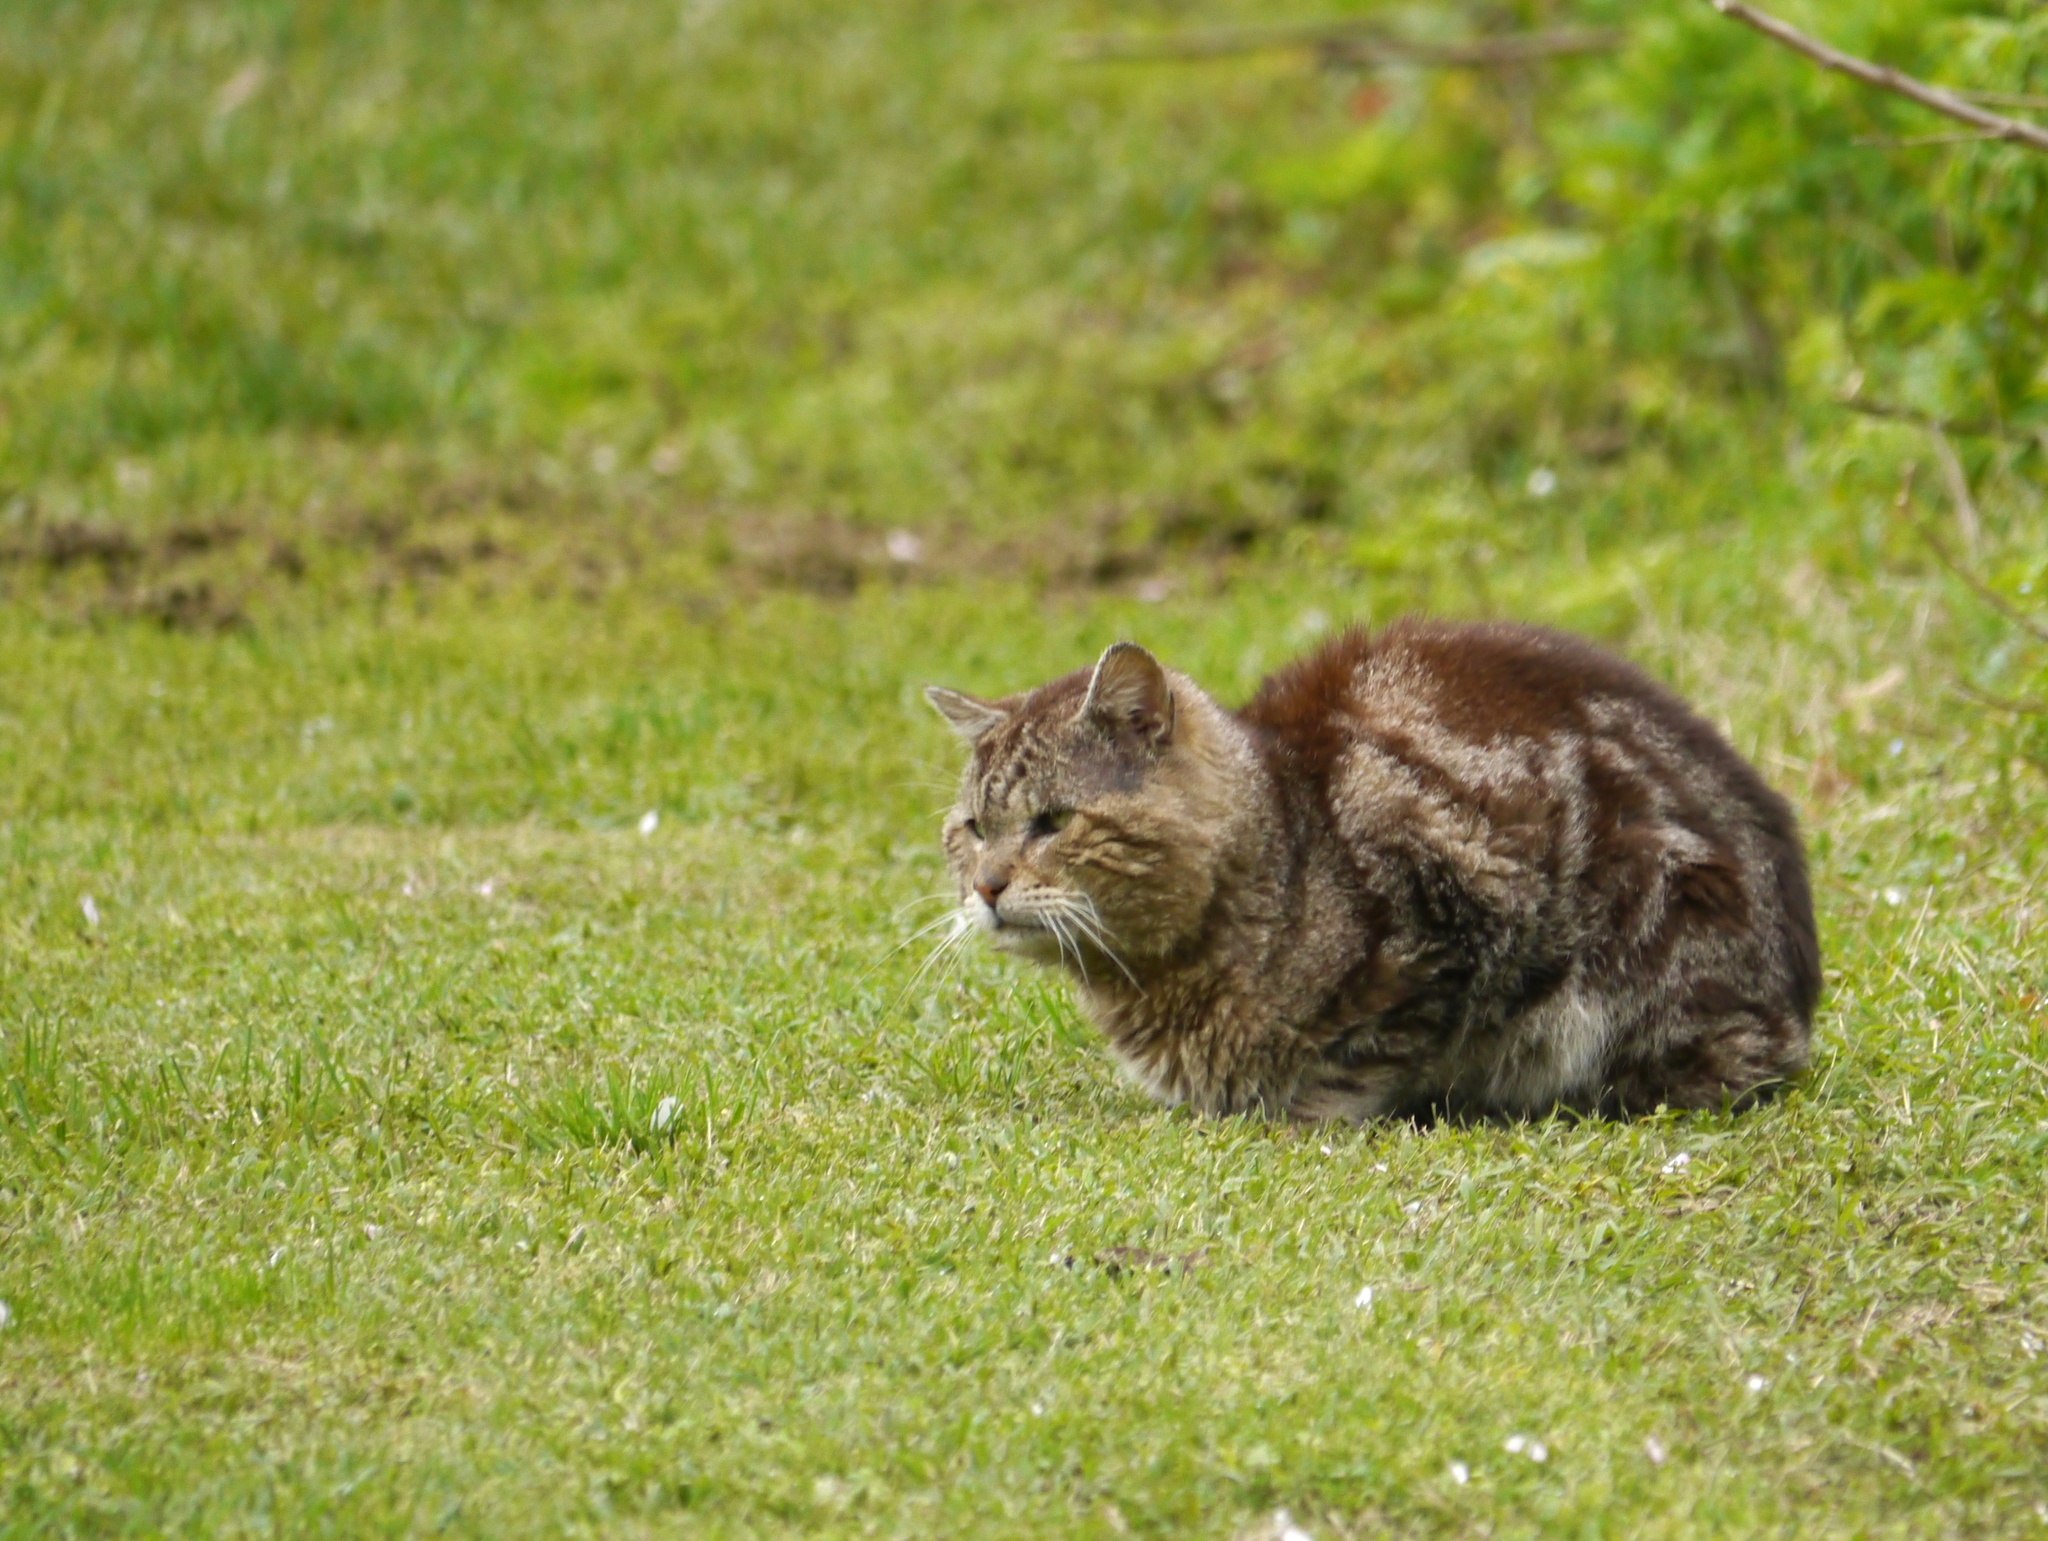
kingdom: Animalia
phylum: Chordata
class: Mammalia
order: Carnivora
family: Felidae
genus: Felis
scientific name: Felis catus
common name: Domestic cat
